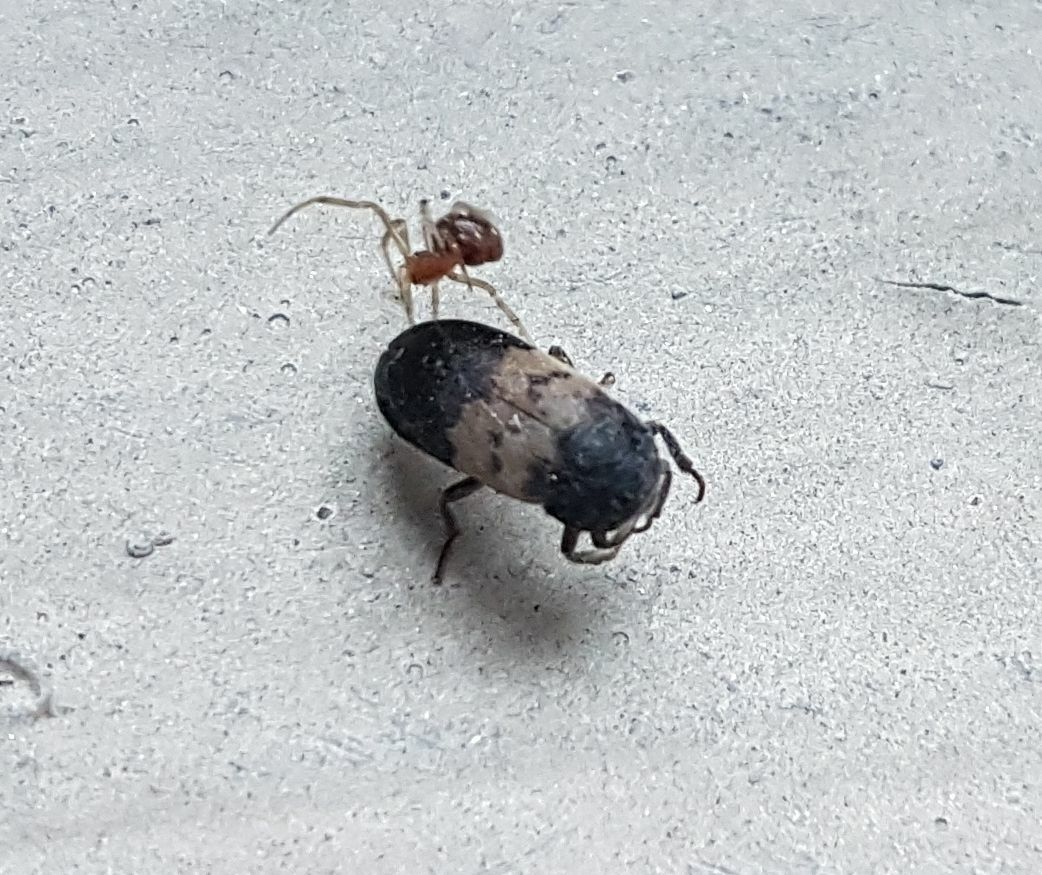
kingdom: Animalia
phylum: Arthropoda
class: Insecta
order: Coleoptera
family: Dermestidae
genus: Dermestes
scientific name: Dermestes lardarius
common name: Larder beetle
